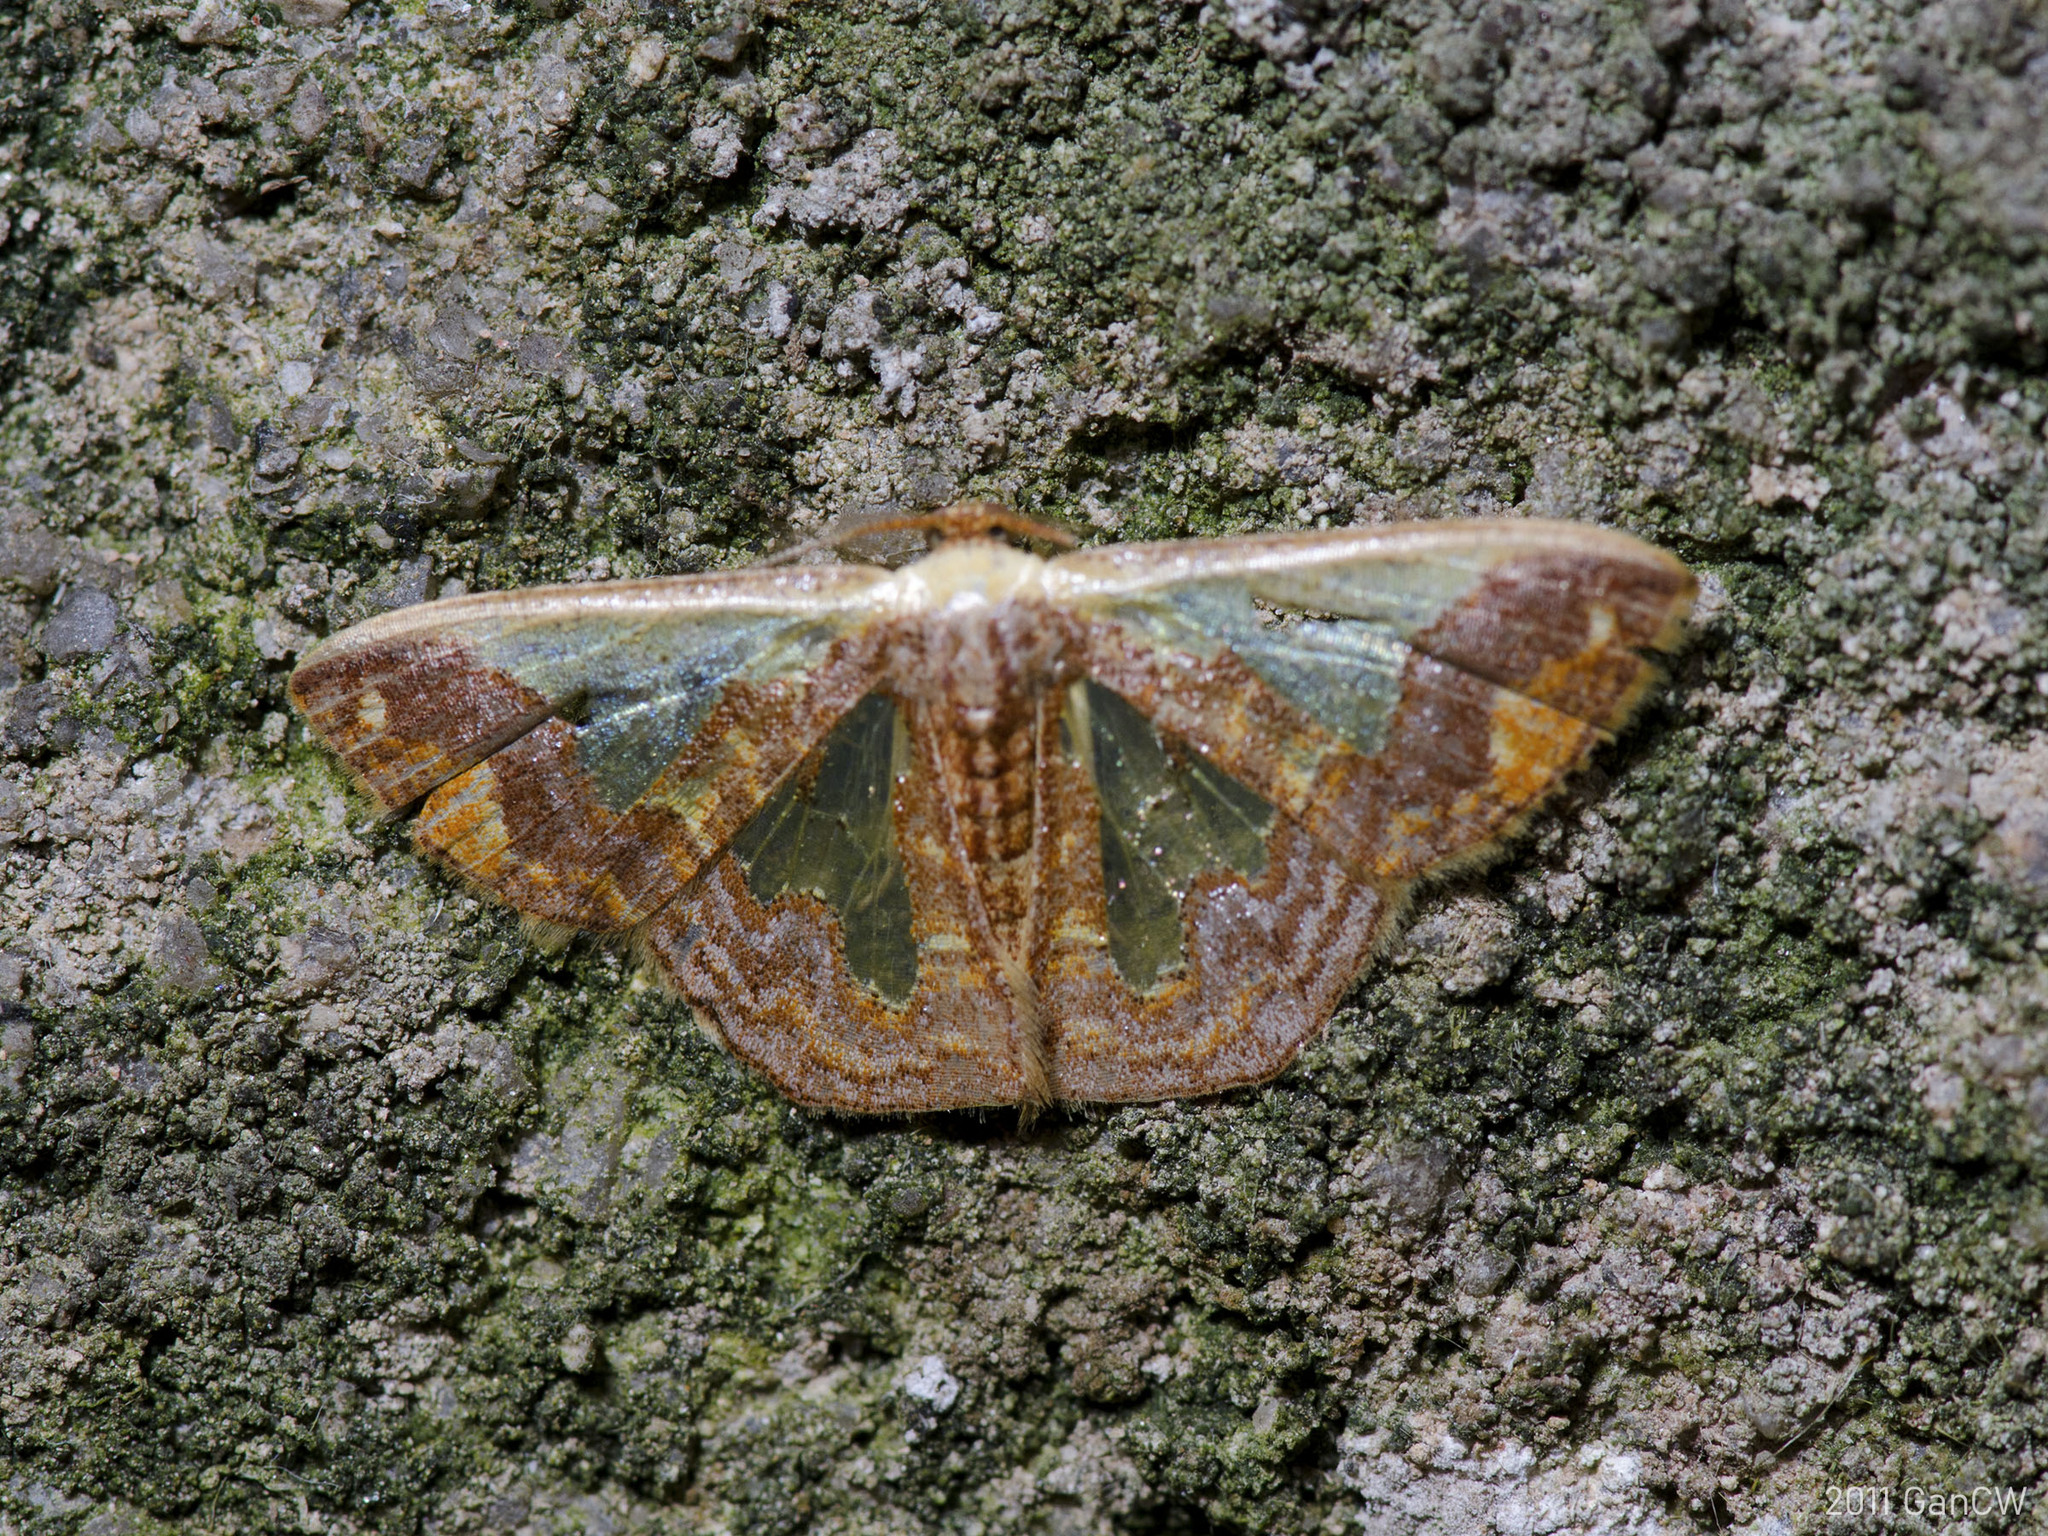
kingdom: Animalia
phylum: Arthropoda
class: Insecta
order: Lepidoptera
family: Geometridae
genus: Peratophyga
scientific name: Peratophyga xanthyala
